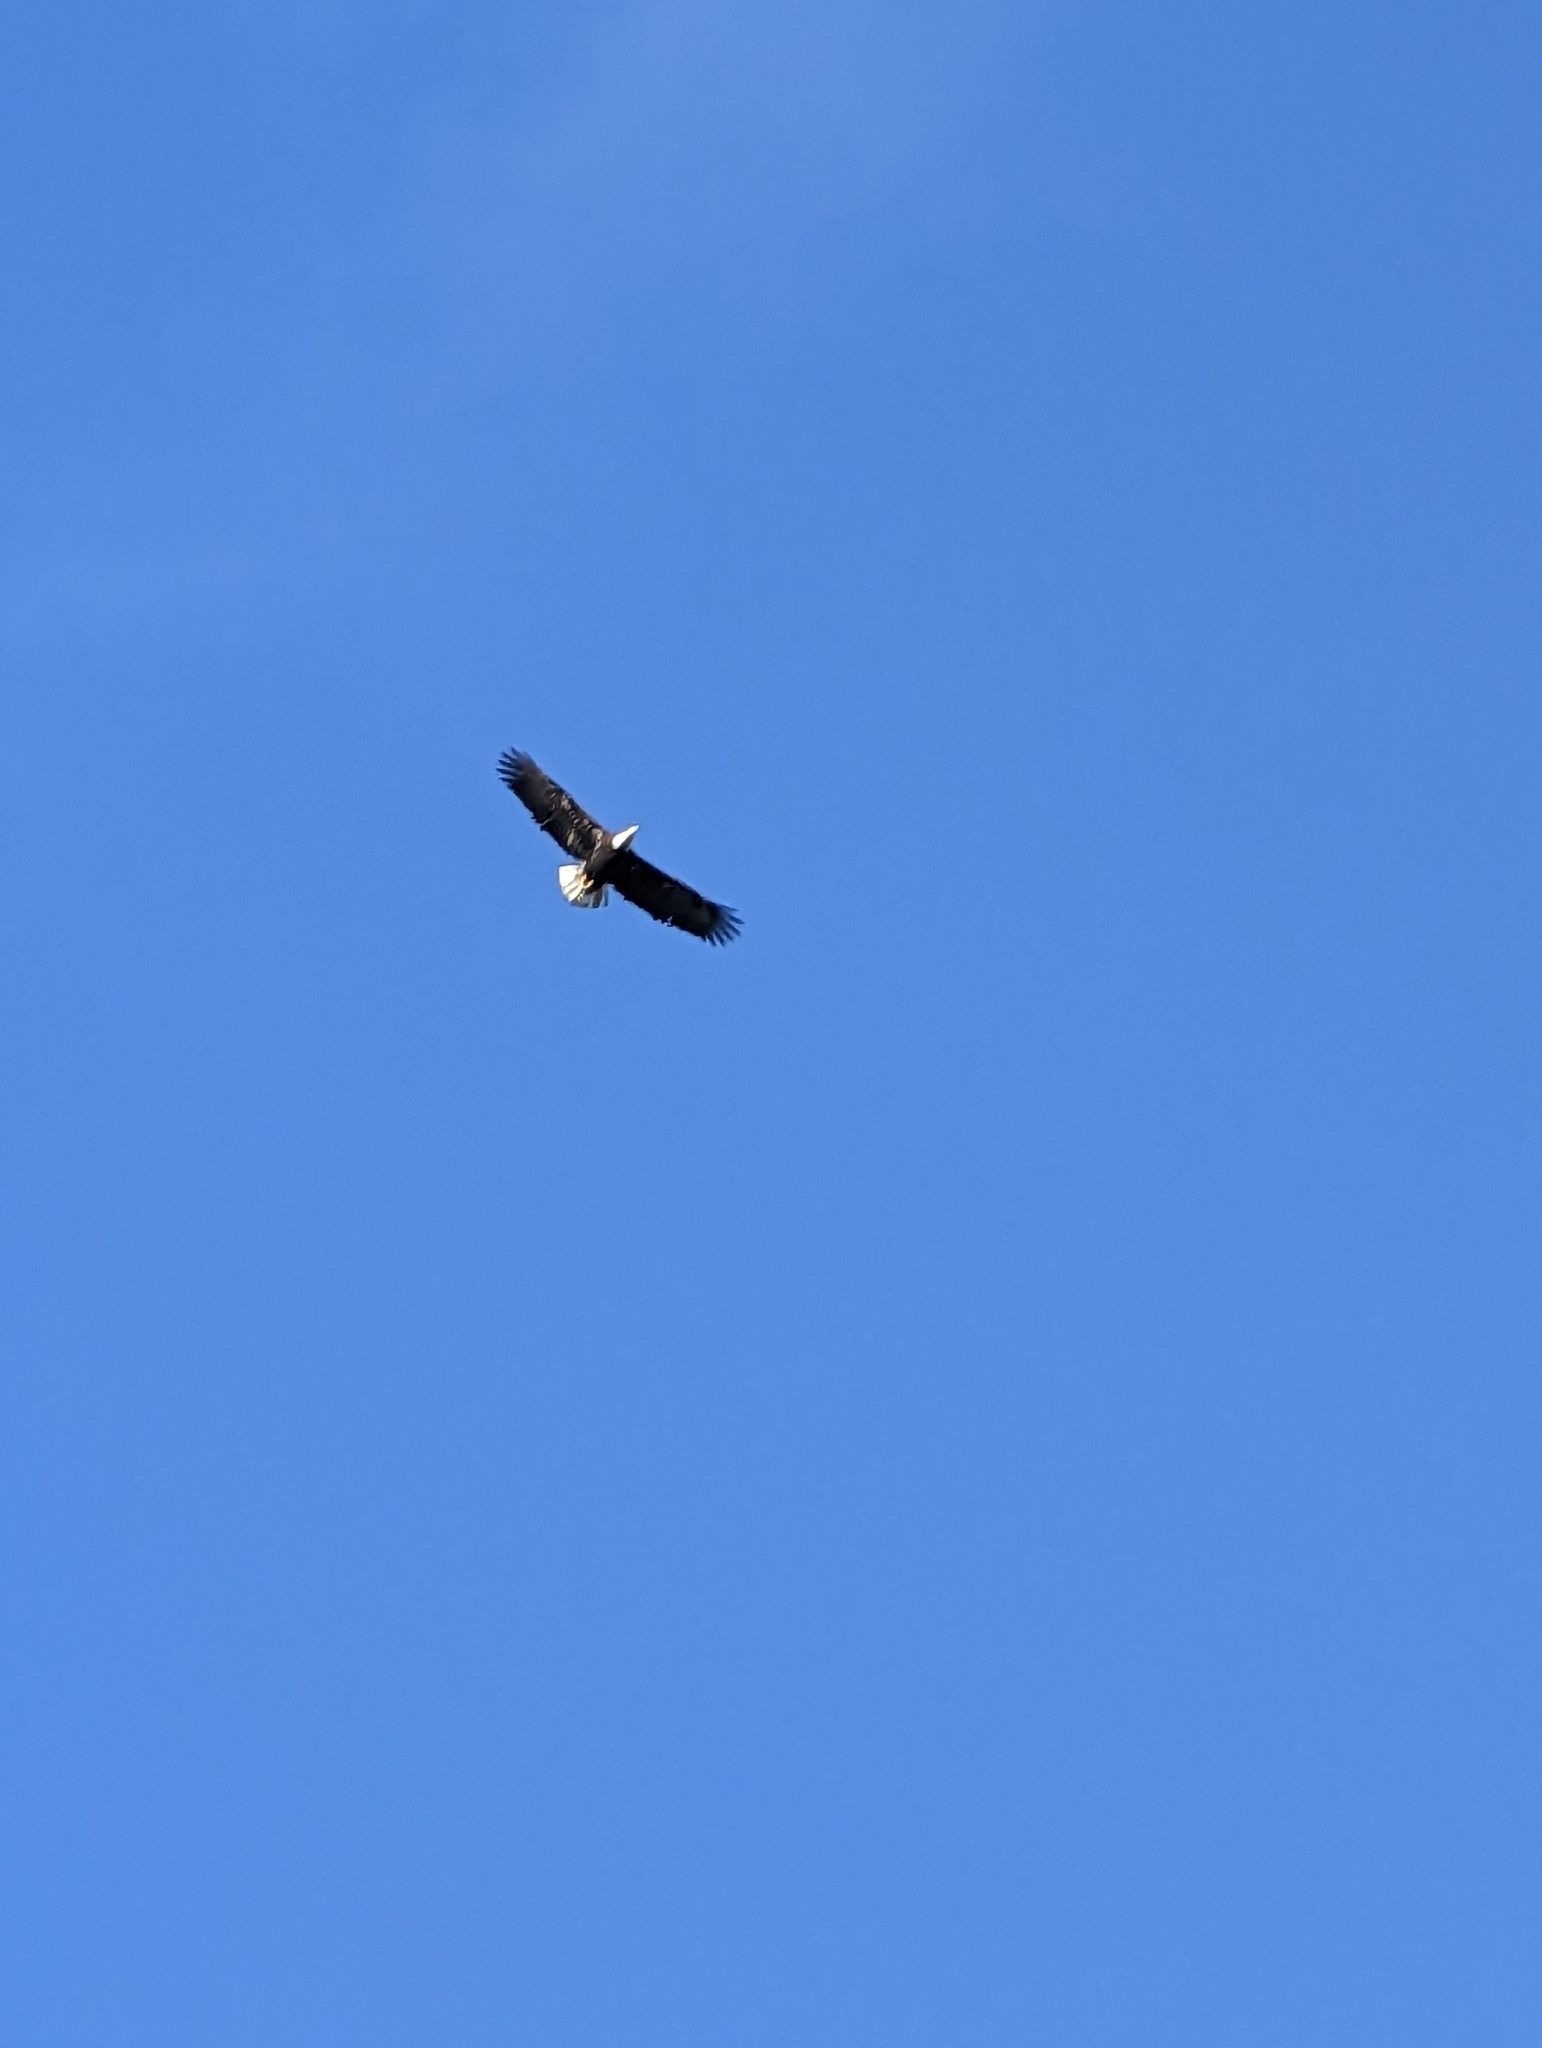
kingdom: Animalia
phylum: Chordata
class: Aves
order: Accipitriformes
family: Accipitridae
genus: Haliaeetus
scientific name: Haliaeetus leucocephalus
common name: Bald eagle
